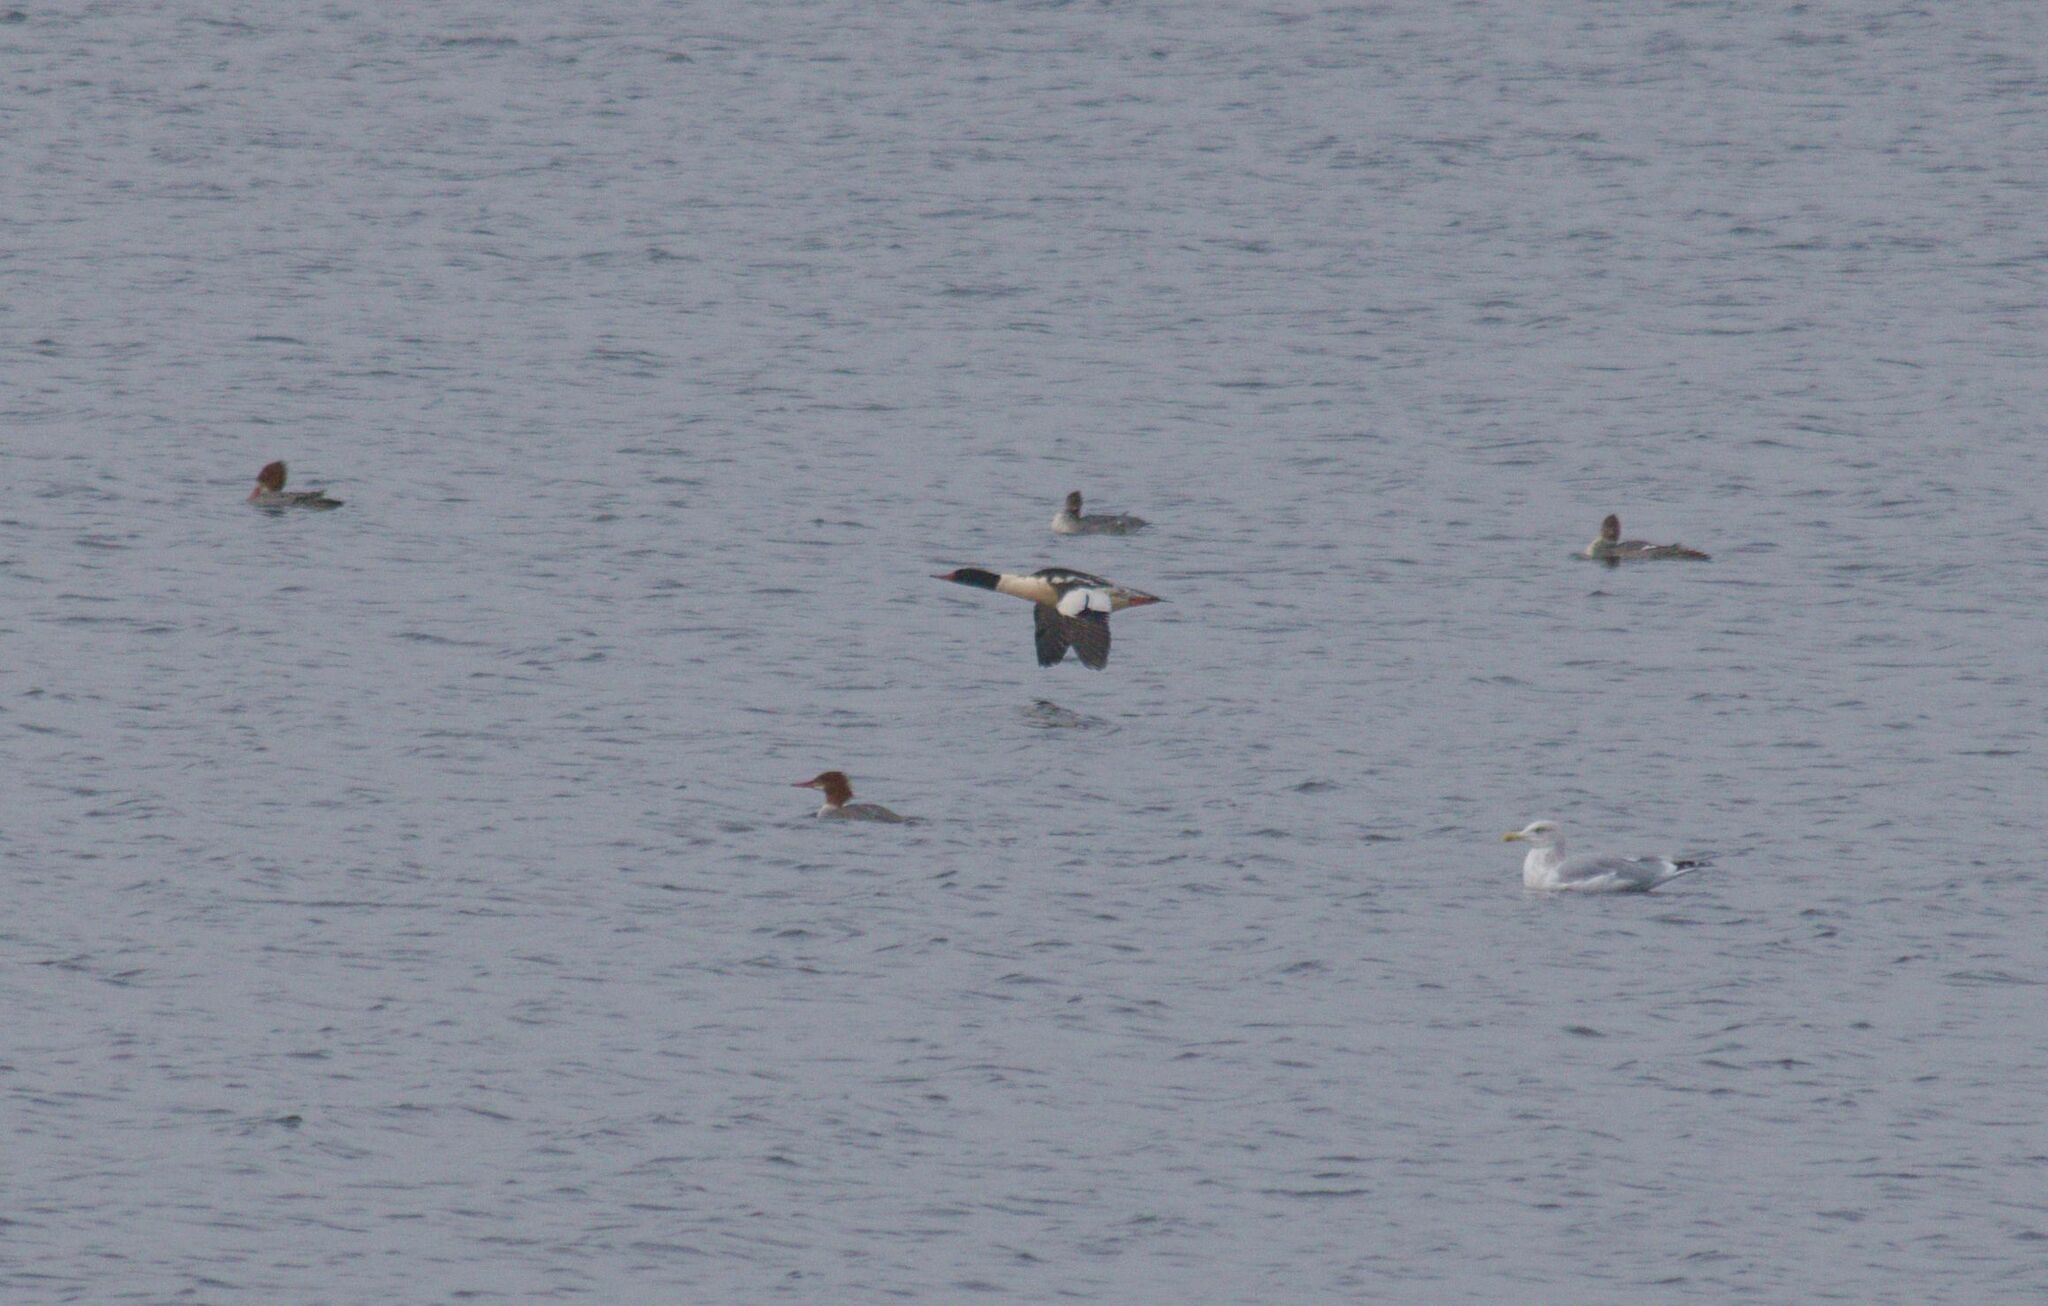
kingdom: Animalia
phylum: Chordata
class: Aves
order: Anseriformes
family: Anatidae
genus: Mergus
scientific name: Mergus merganser
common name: Common merganser
